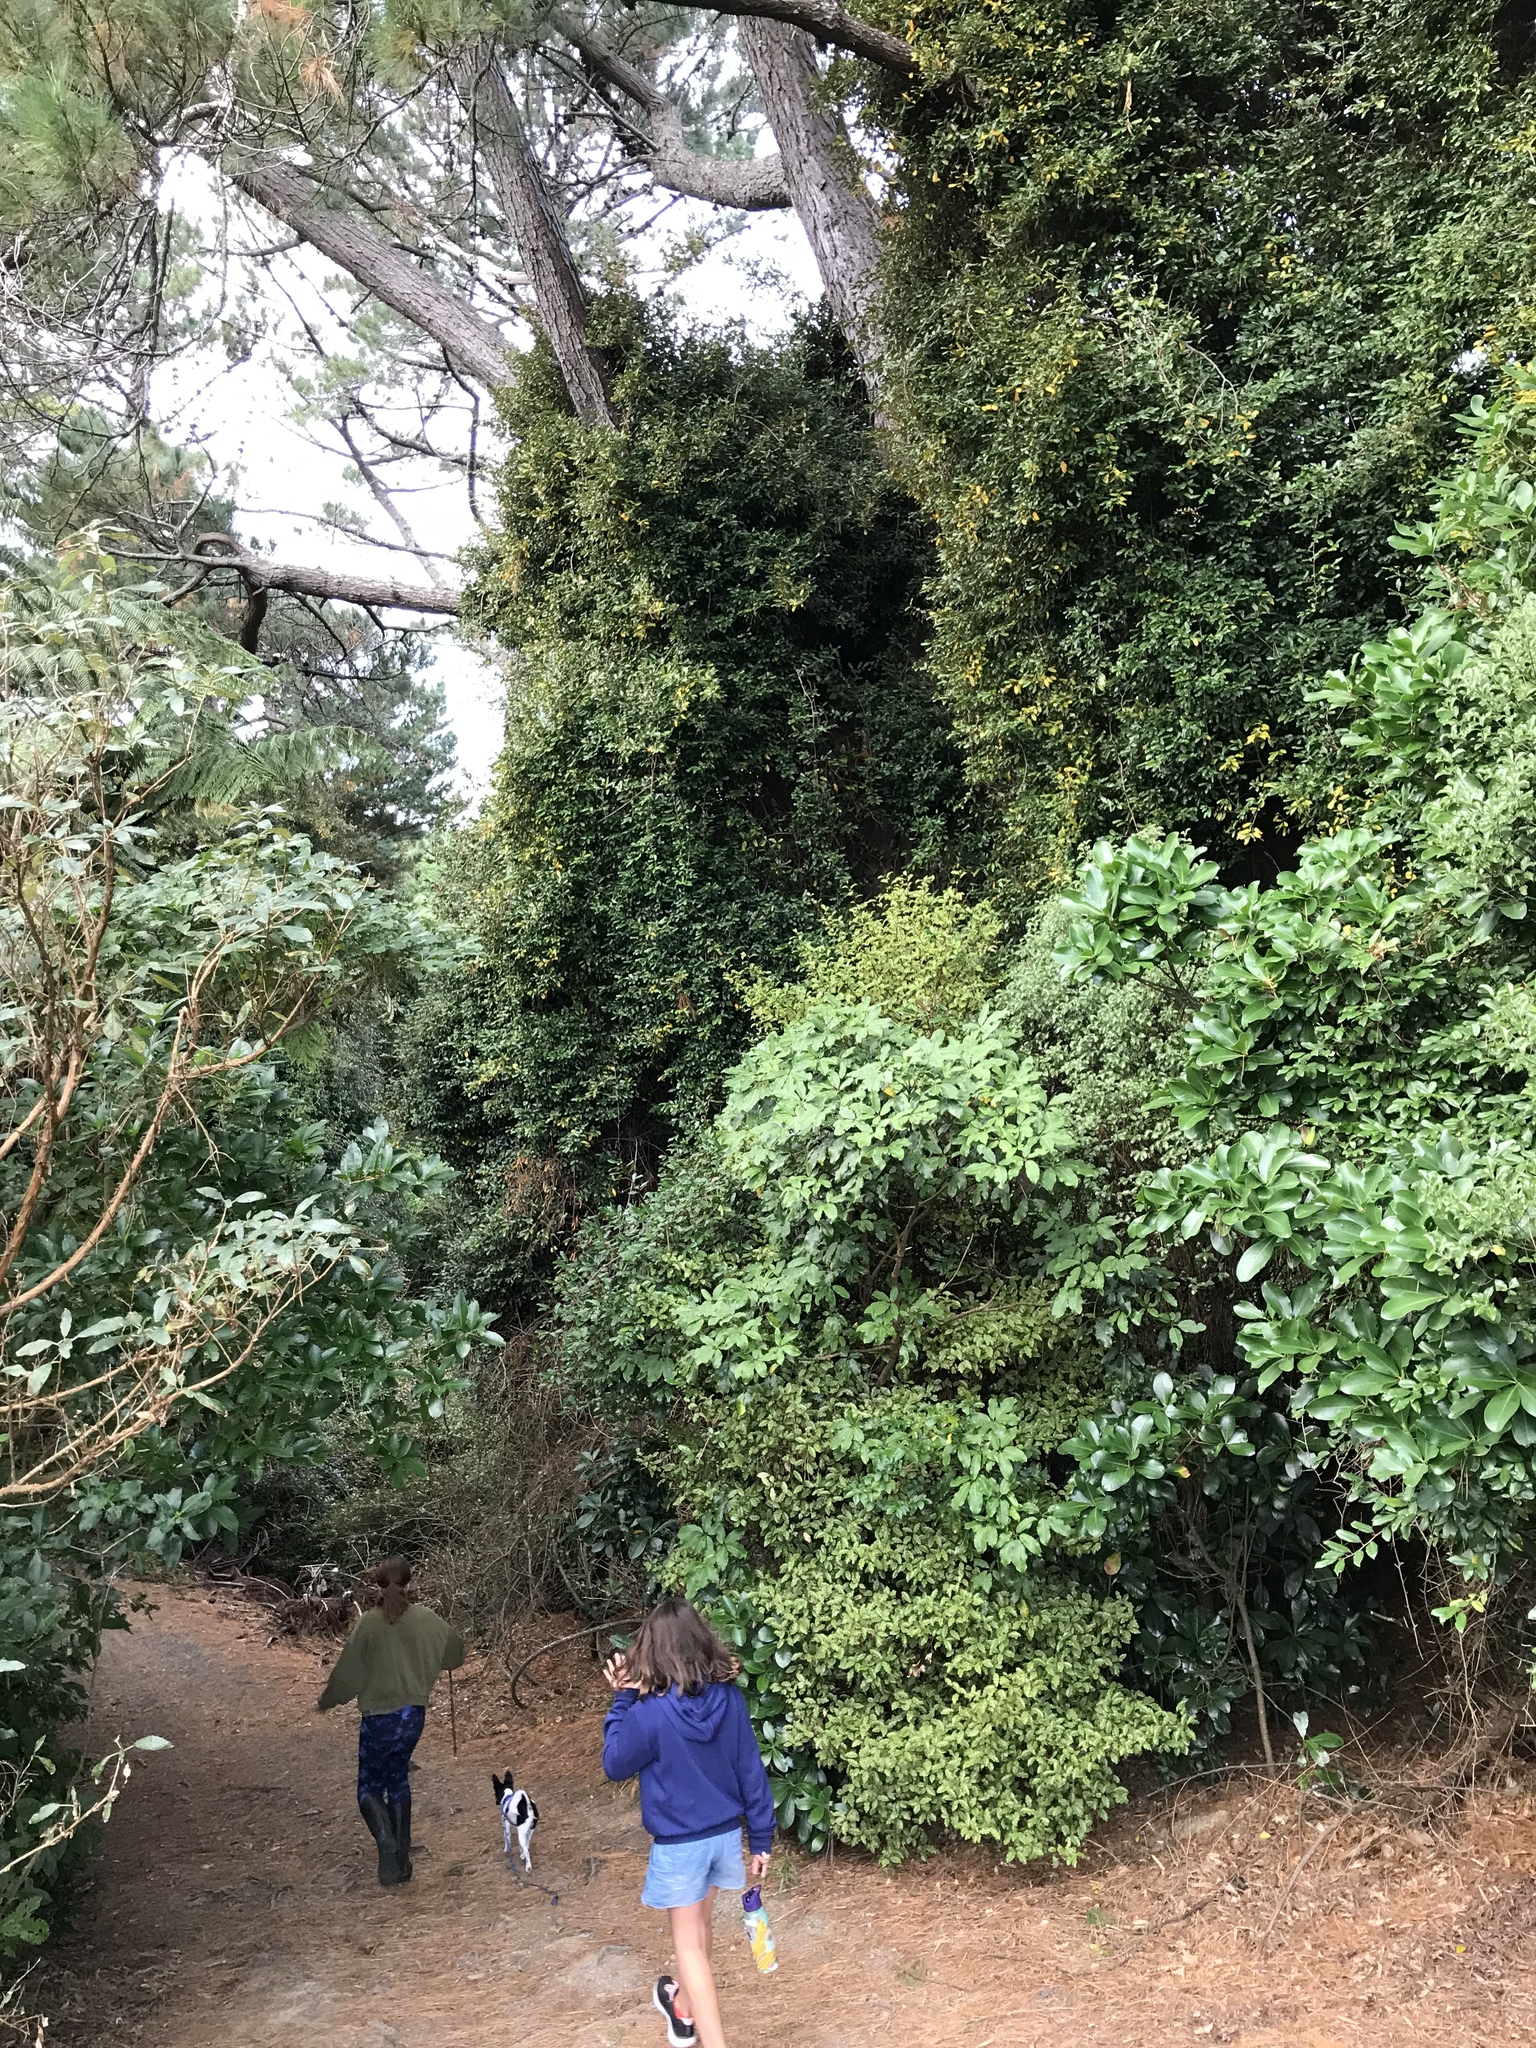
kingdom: Plantae
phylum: Tracheophyta
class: Magnoliopsida
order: Rosales
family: Elaeagnaceae
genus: Elaeagnus
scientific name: Elaeagnus reflexa
